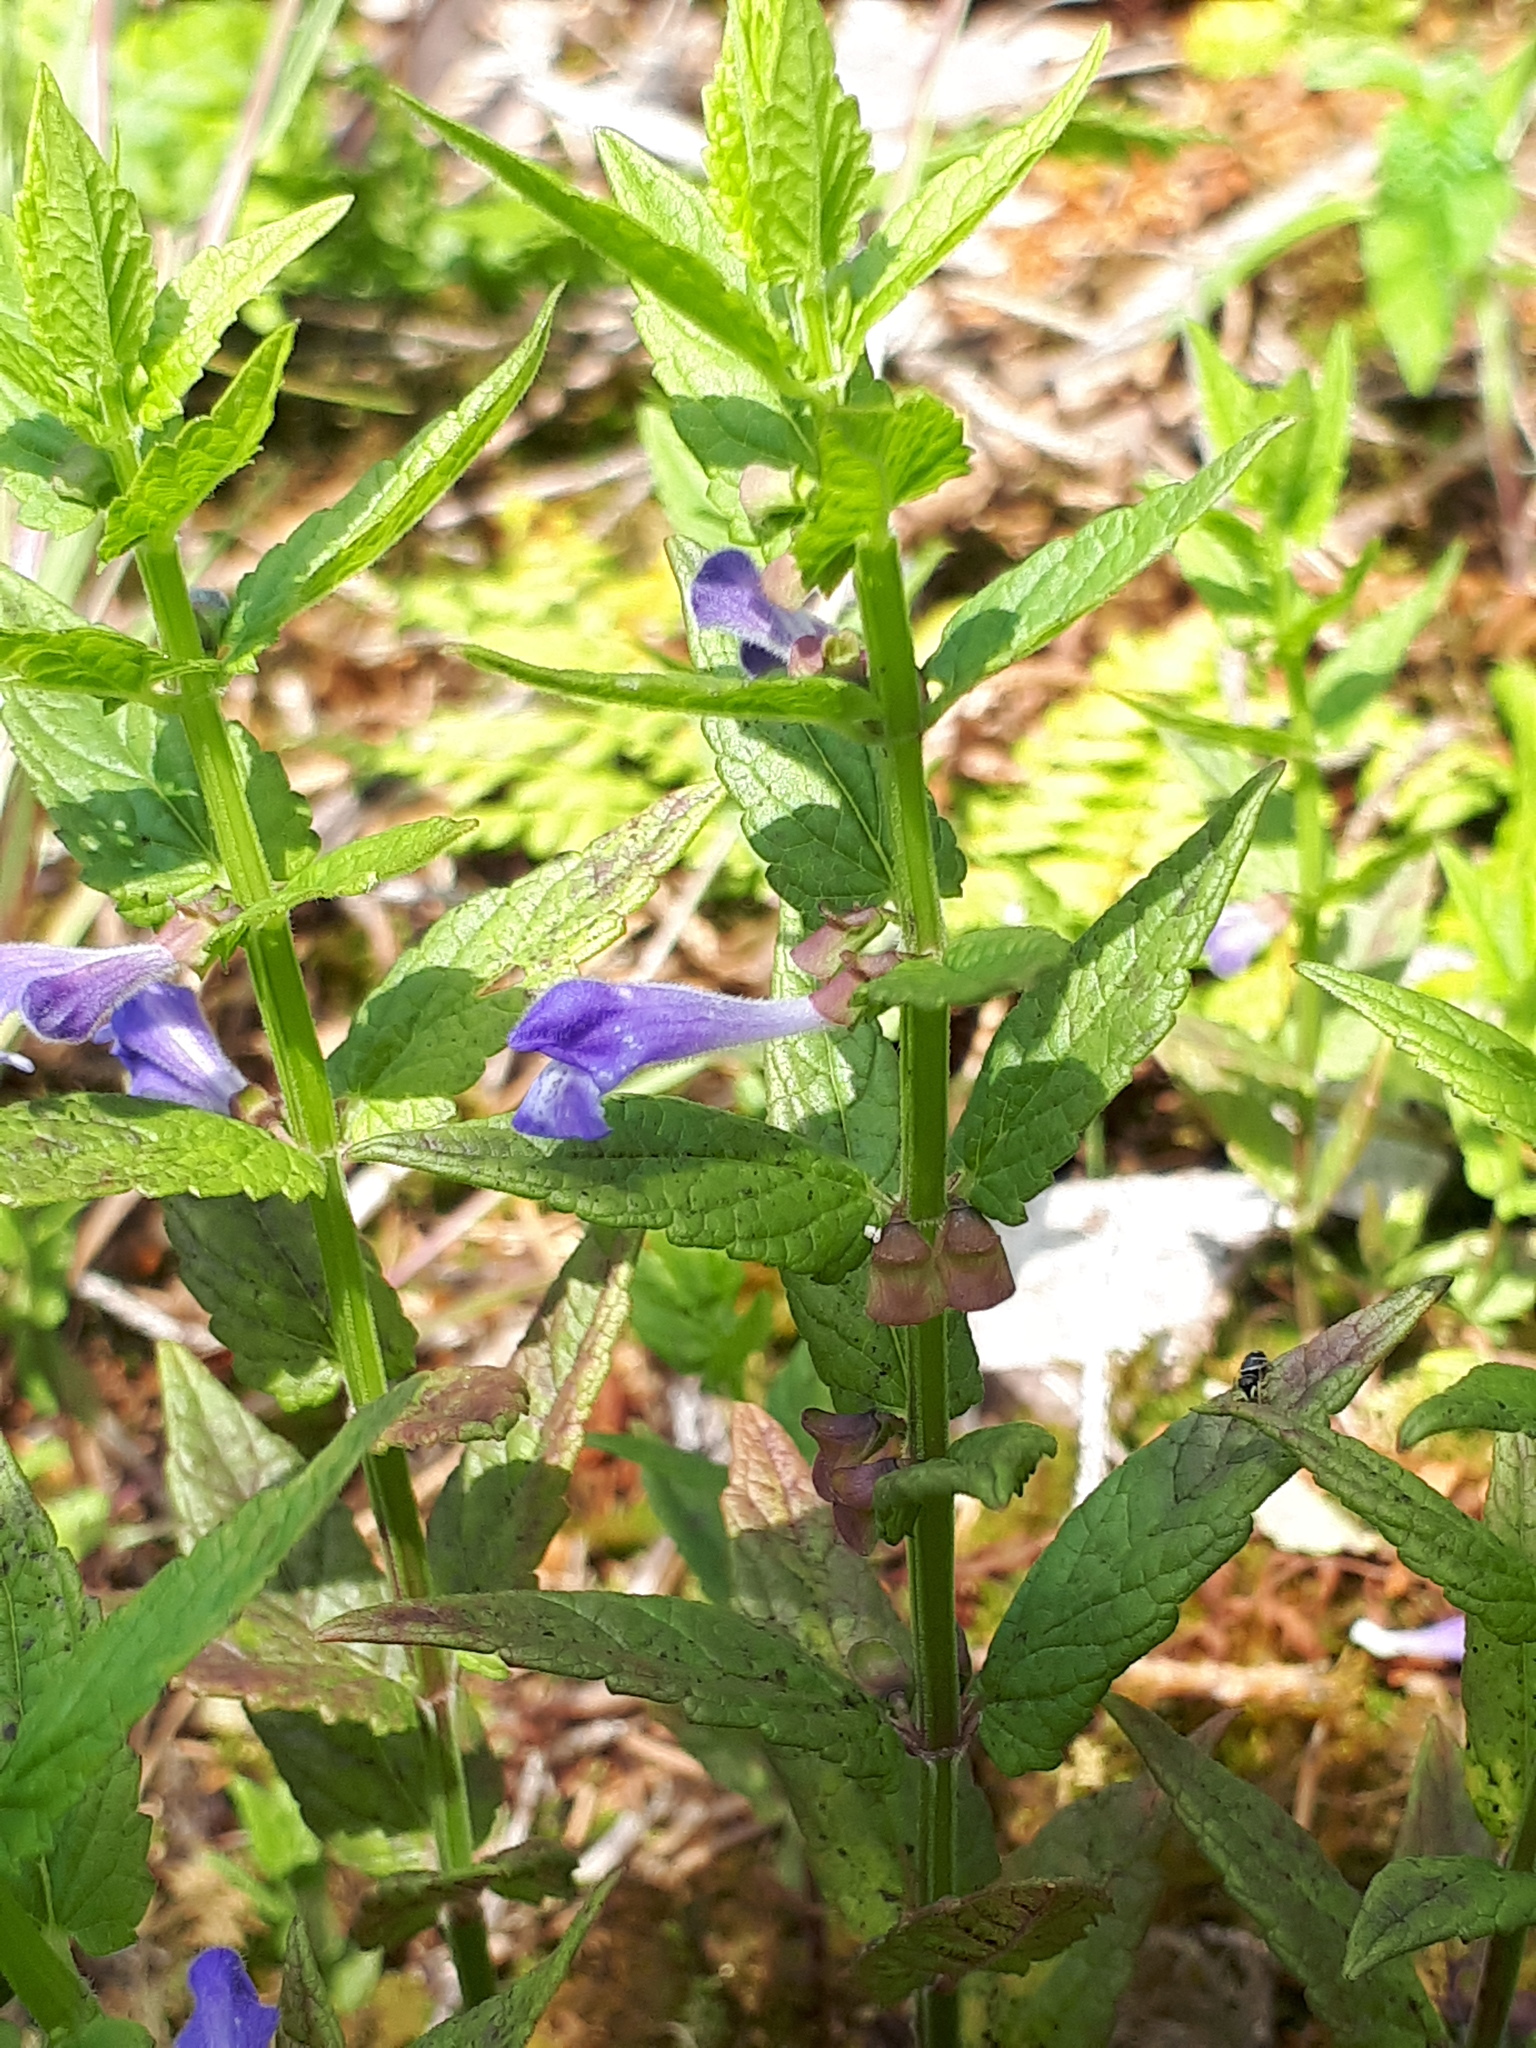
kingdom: Plantae
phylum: Tracheophyta
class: Magnoliopsida
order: Lamiales
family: Lamiaceae
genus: Scutellaria
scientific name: Scutellaria galericulata
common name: Skullcap
